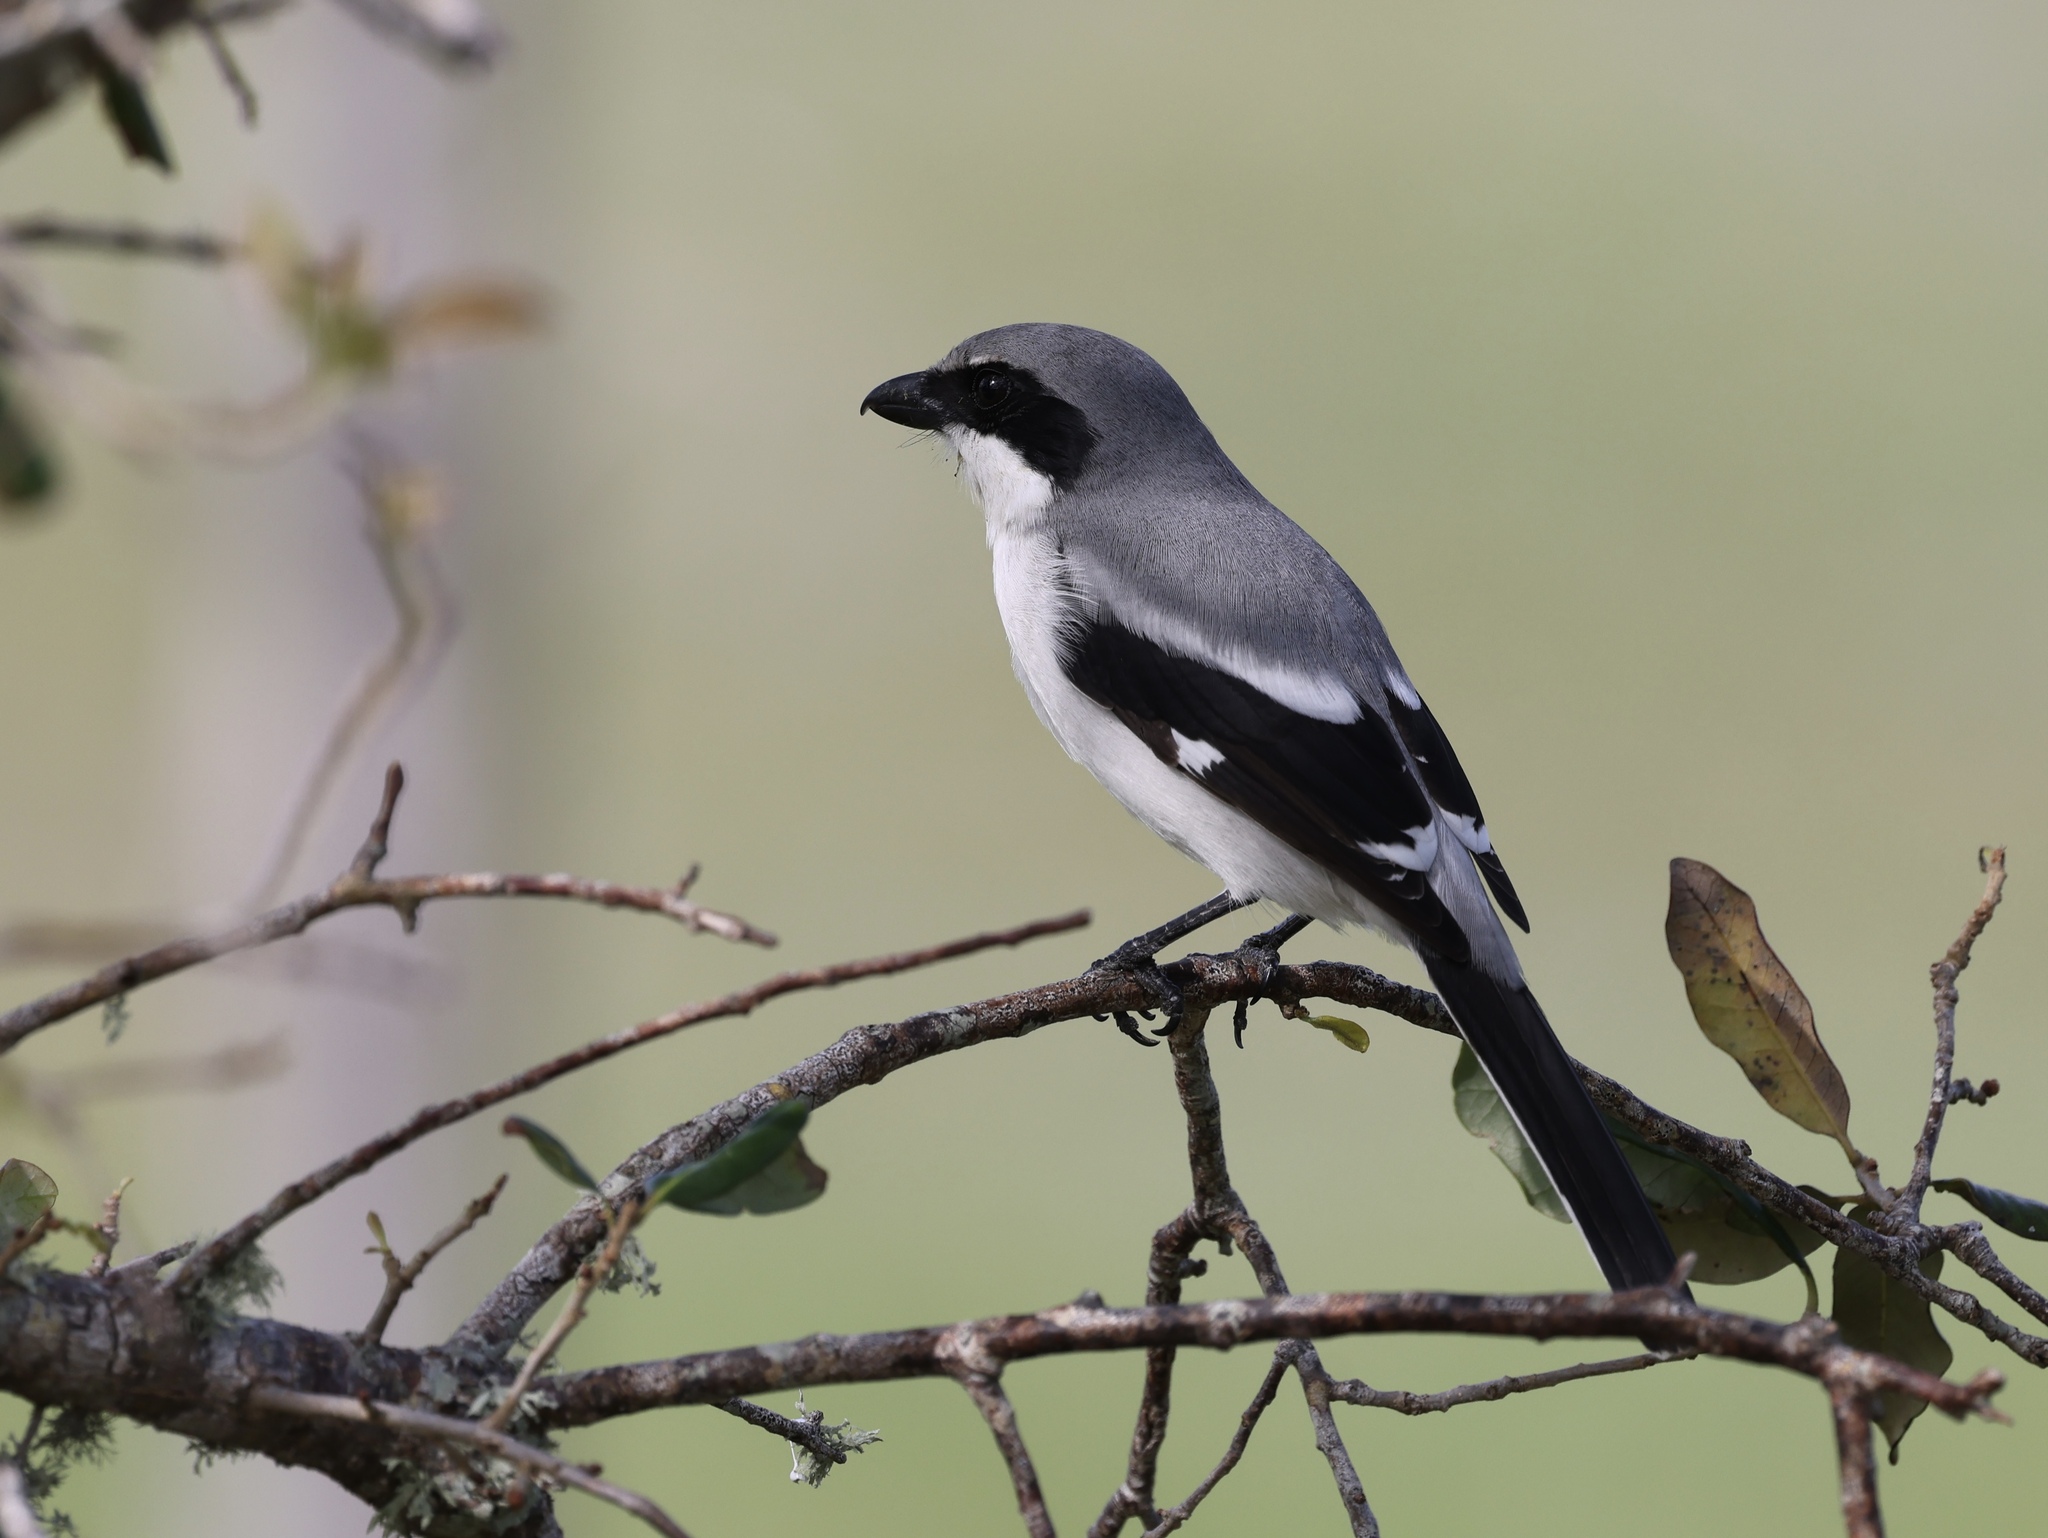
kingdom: Animalia
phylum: Chordata
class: Aves
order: Passeriformes
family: Laniidae
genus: Lanius
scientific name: Lanius ludovicianus
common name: Loggerhead shrike
